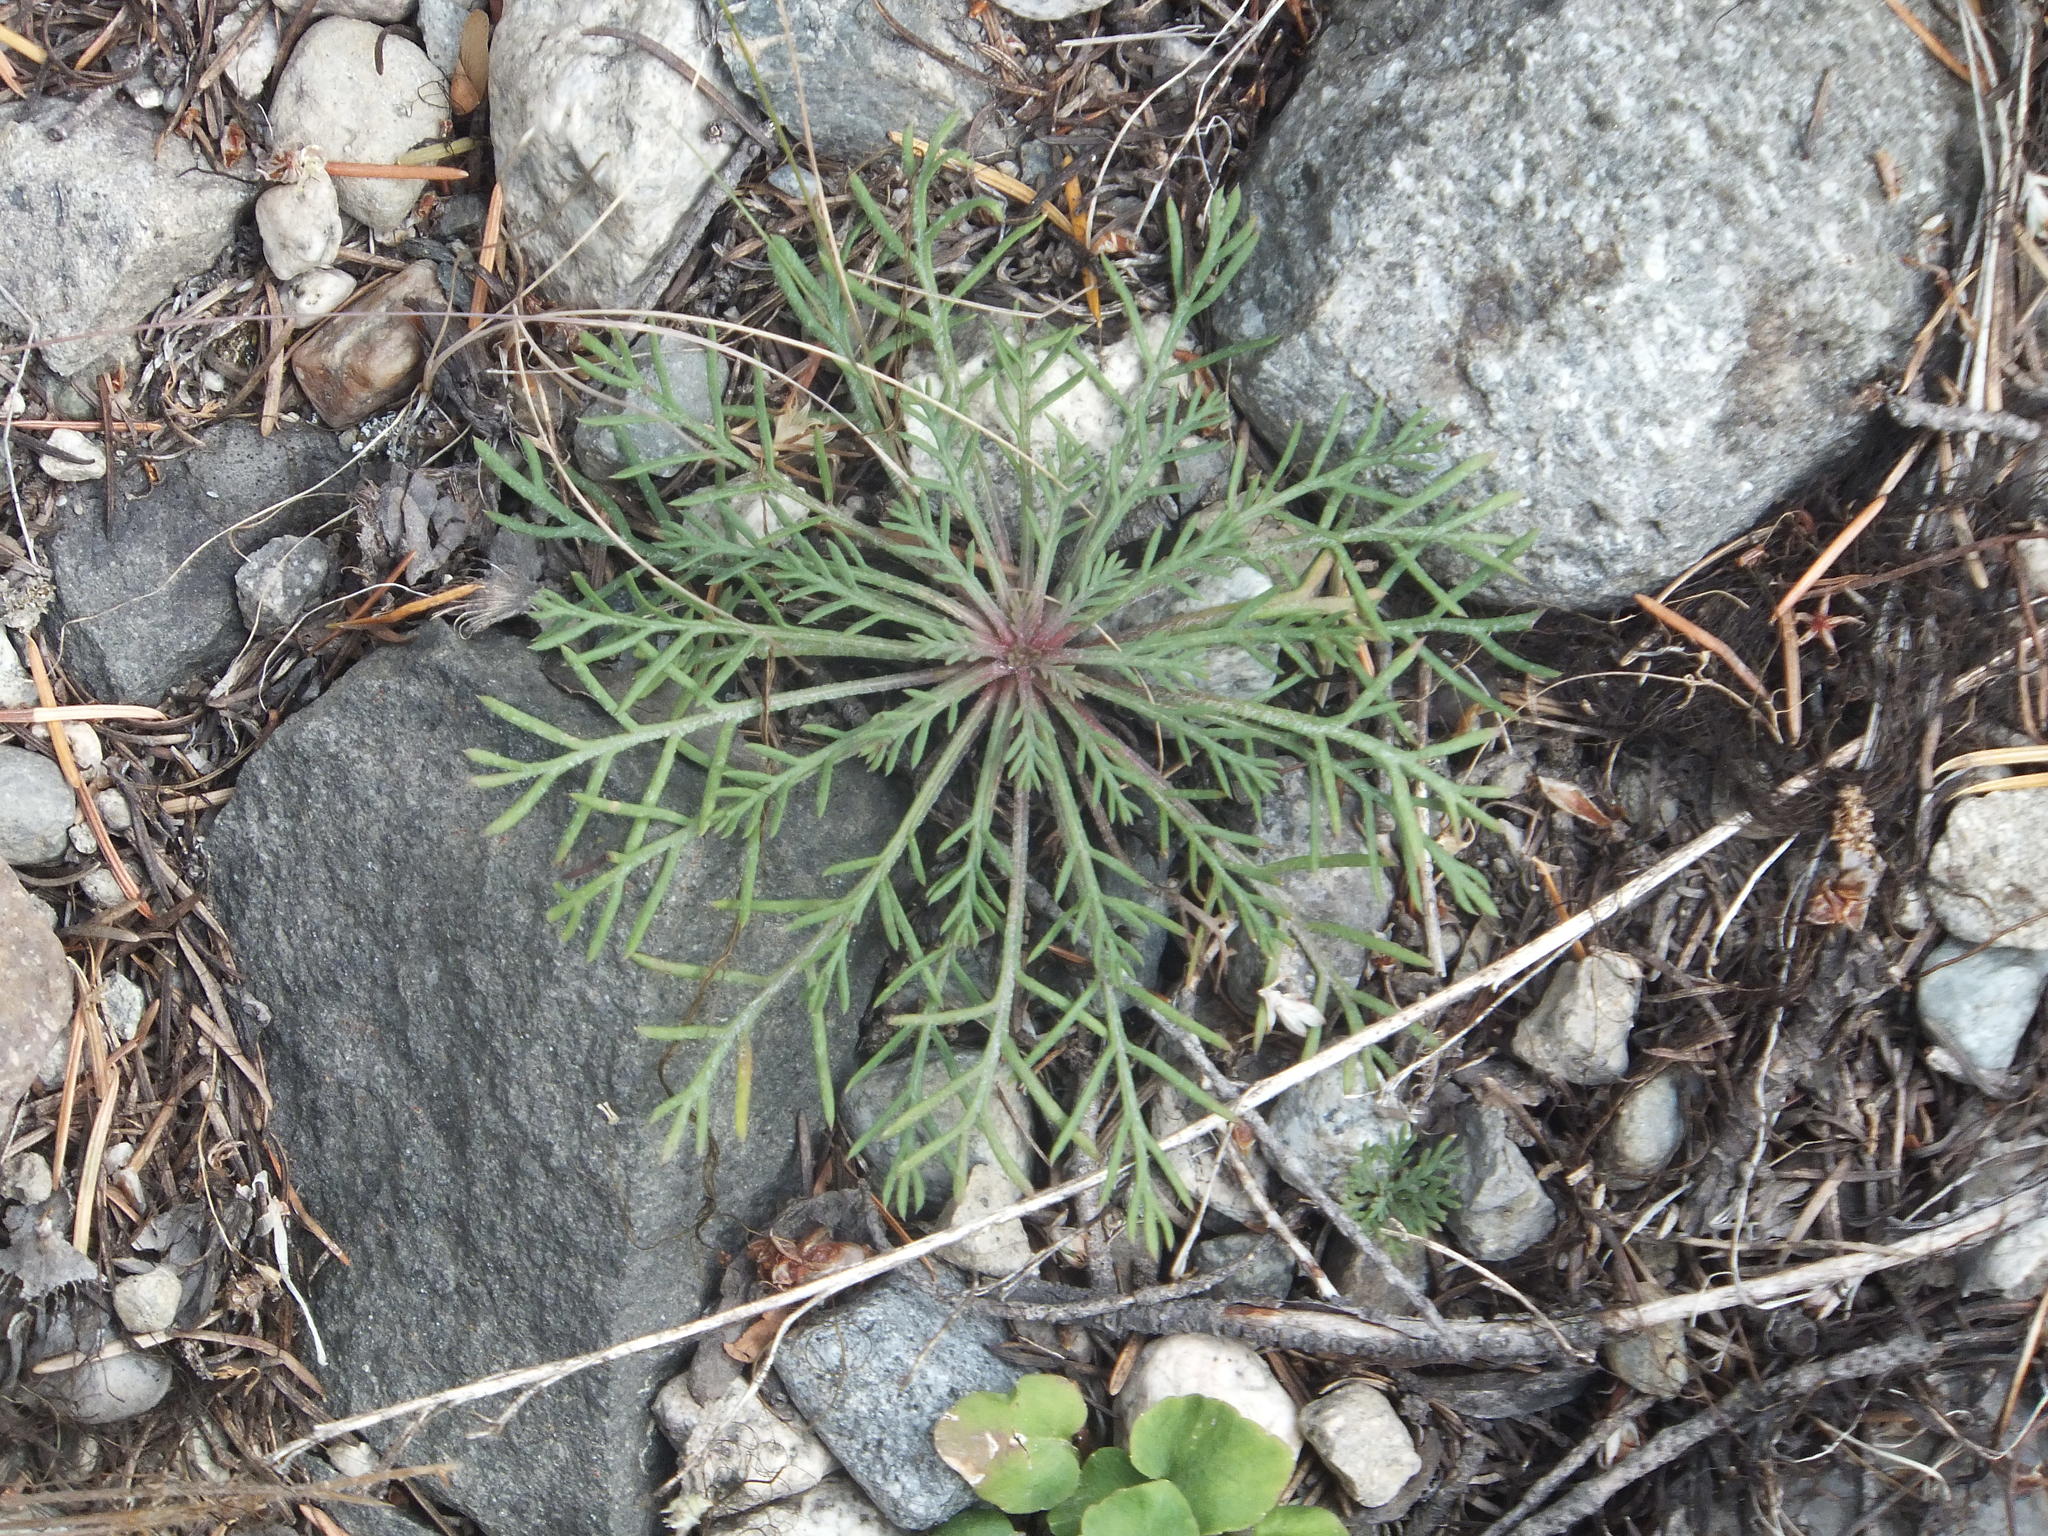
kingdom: Plantae
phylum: Tracheophyta
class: Magnoliopsida
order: Ericales
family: Polemoniaceae
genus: Ipomopsis
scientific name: Ipomopsis aggregata
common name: Scarlet gilia
